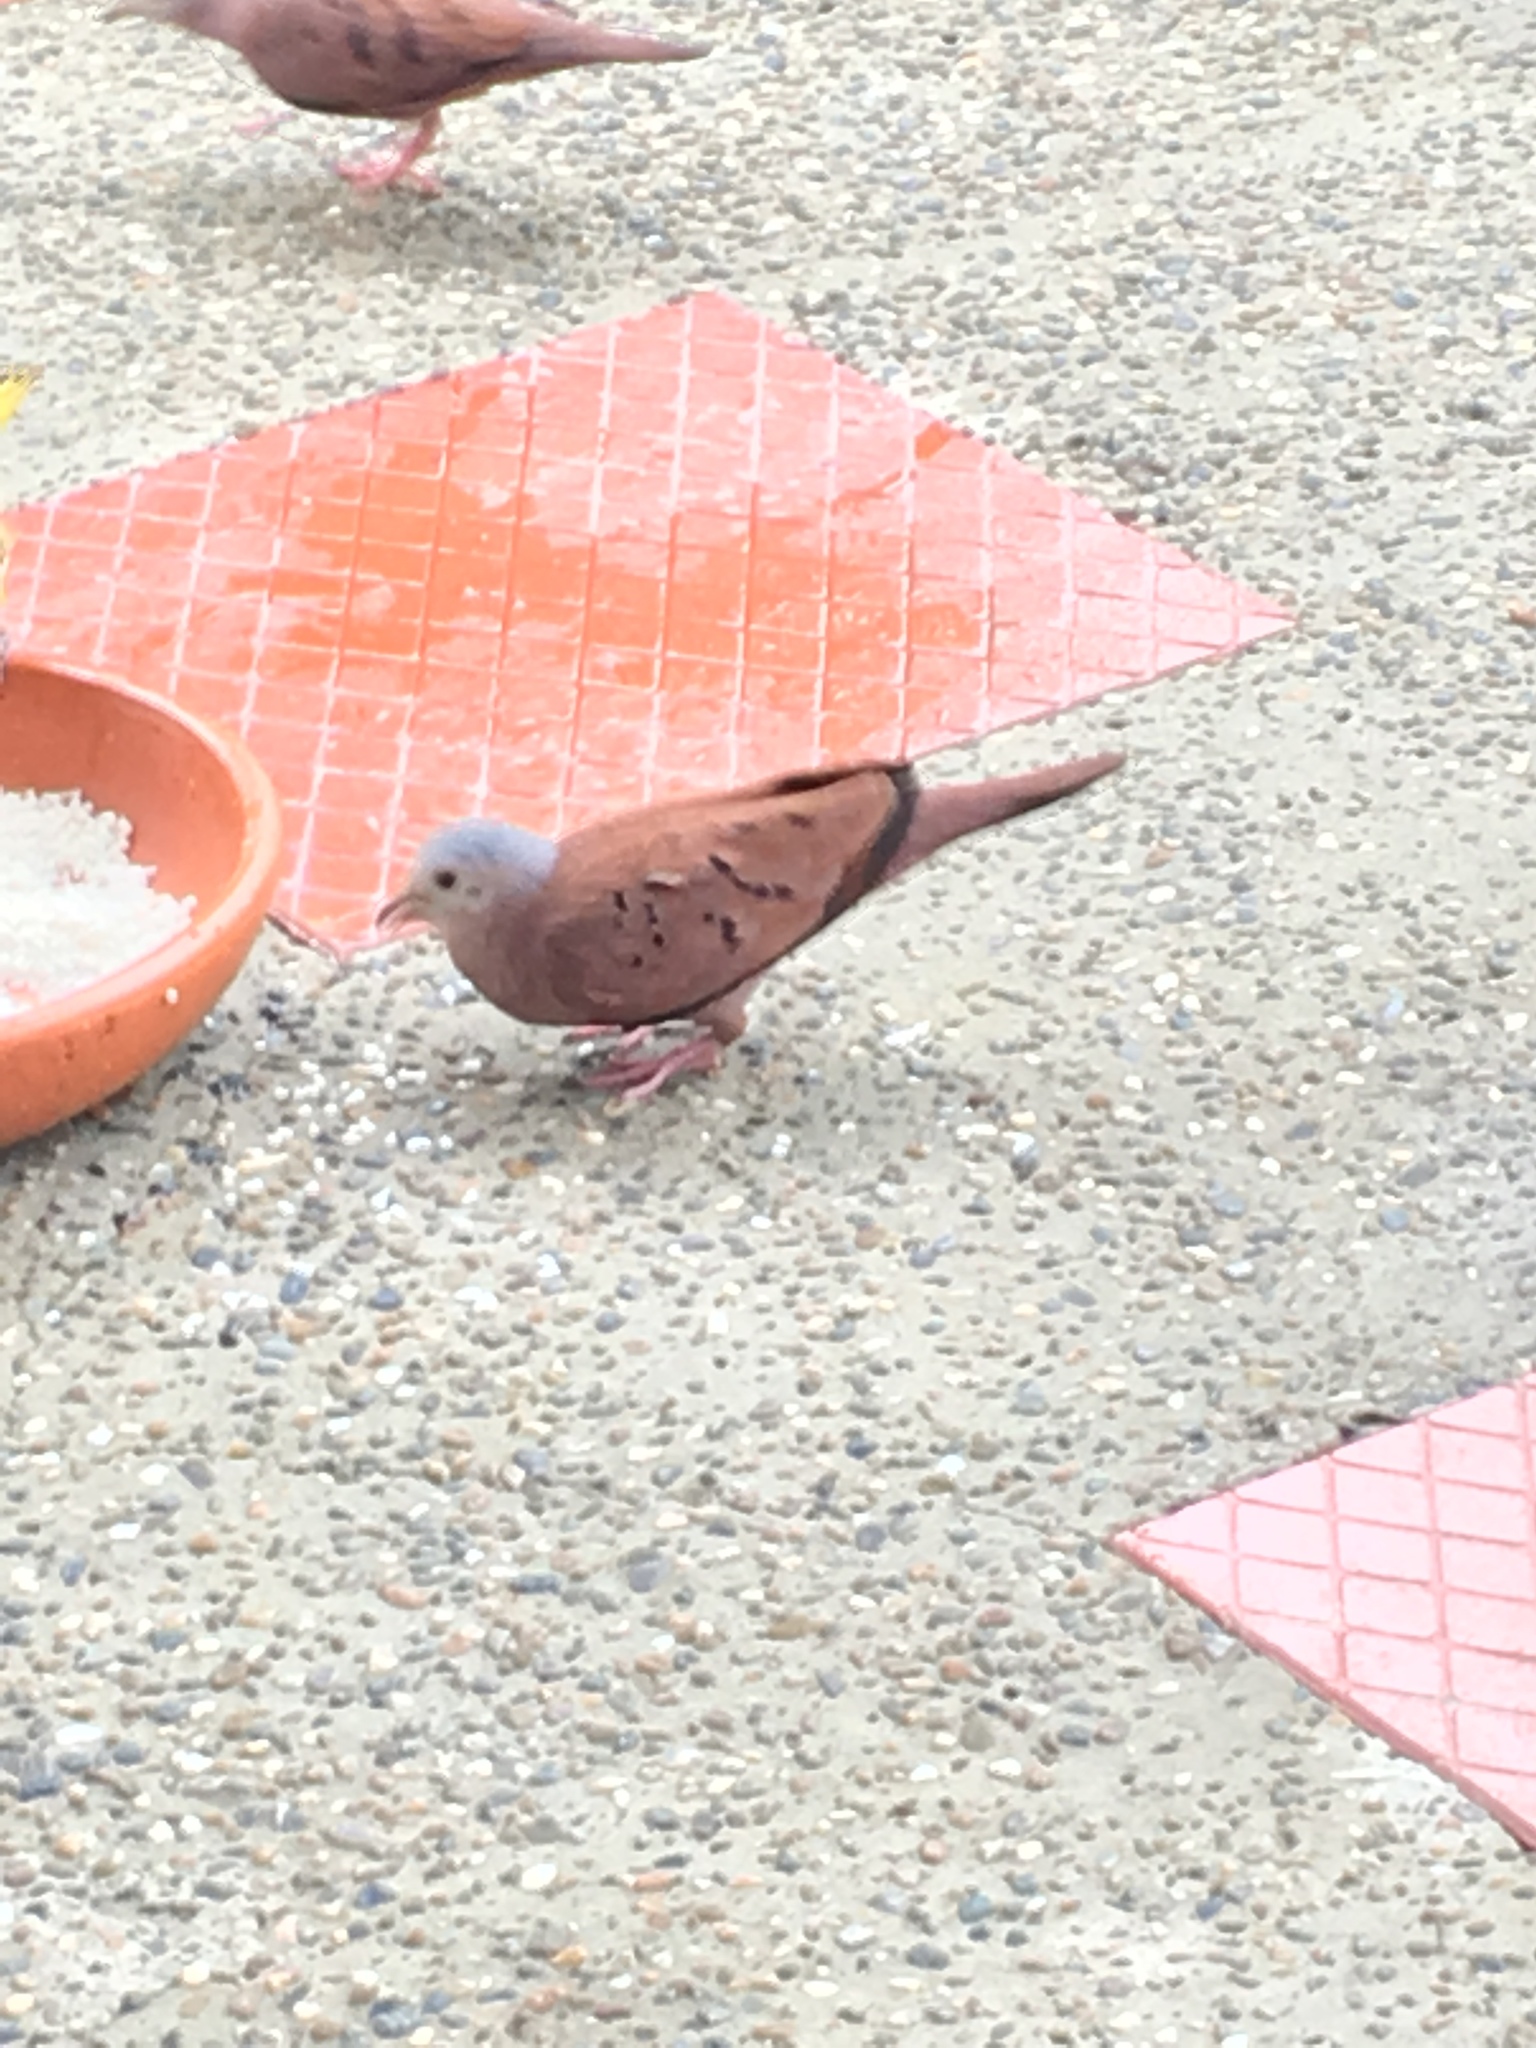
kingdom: Animalia
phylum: Chordata
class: Aves
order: Columbiformes
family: Columbidae
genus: Columbina
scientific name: Columbina talpacoti
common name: Ruddy ground dove
